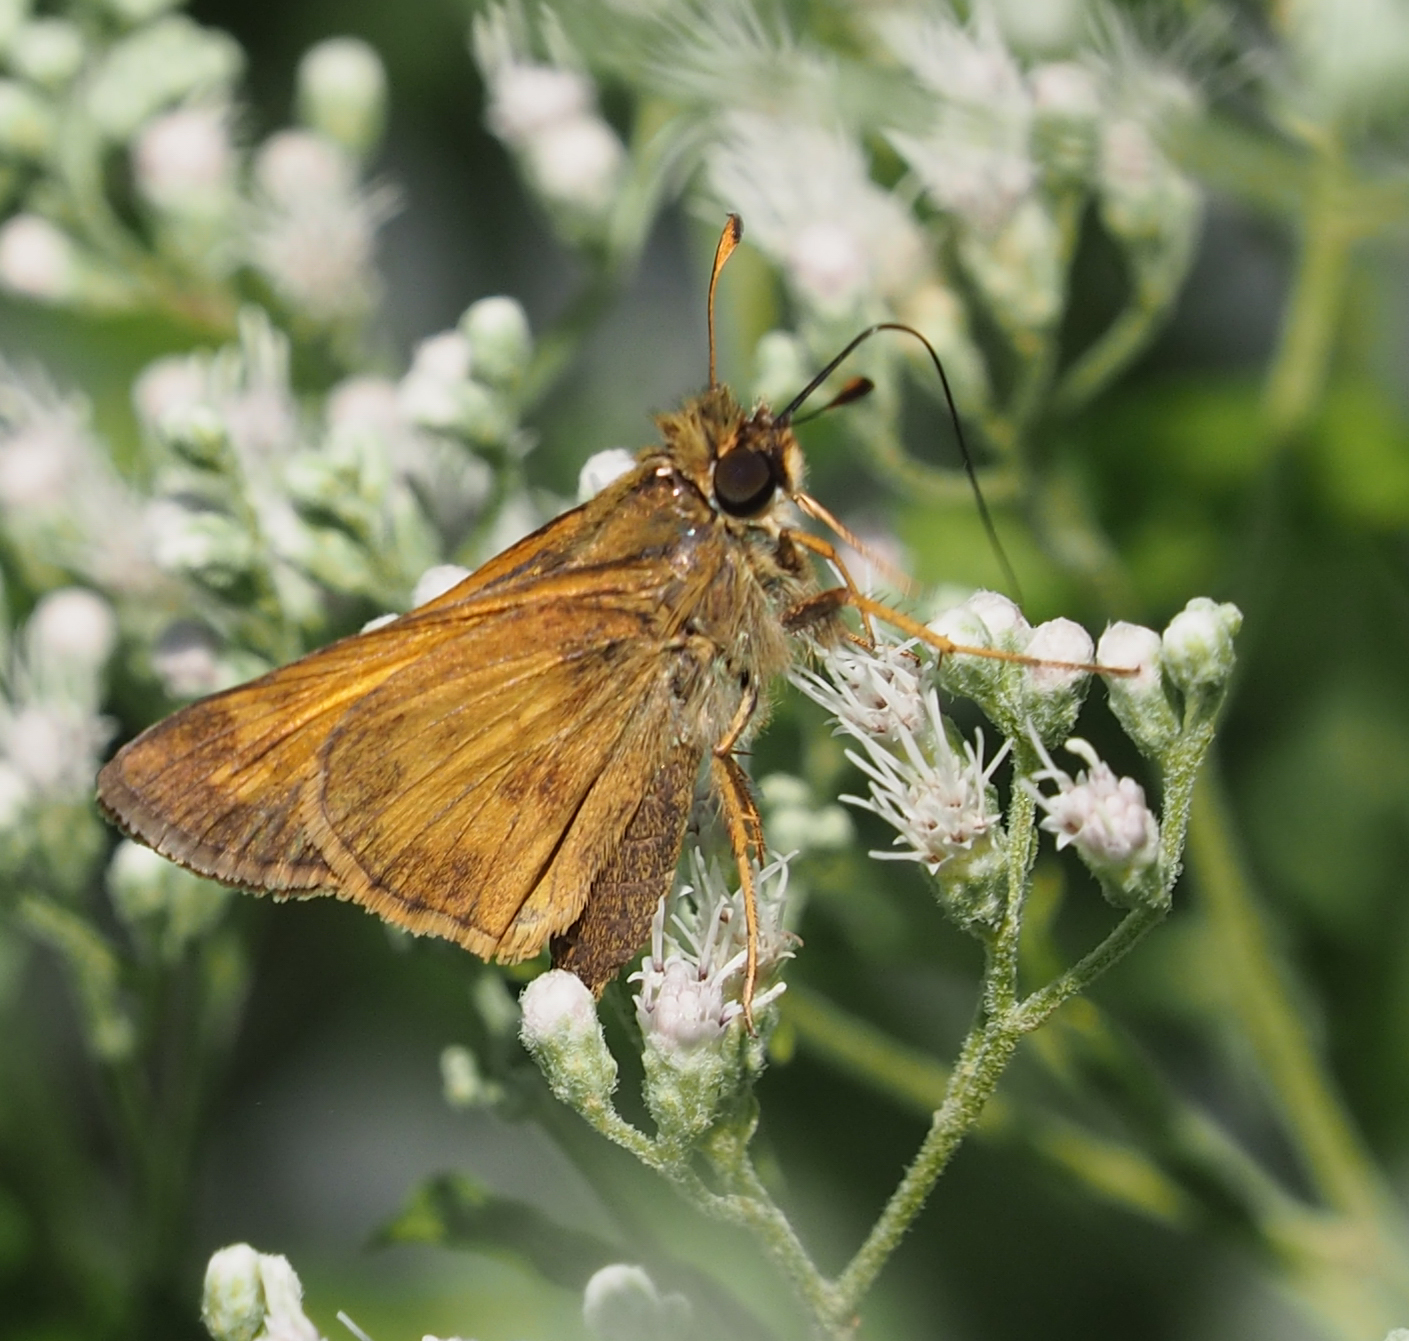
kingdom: Animalia
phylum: Arthropoda
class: Insecta
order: Lepidoptera
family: Hesperiidae
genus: Atalopedes
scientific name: Atalopedes
